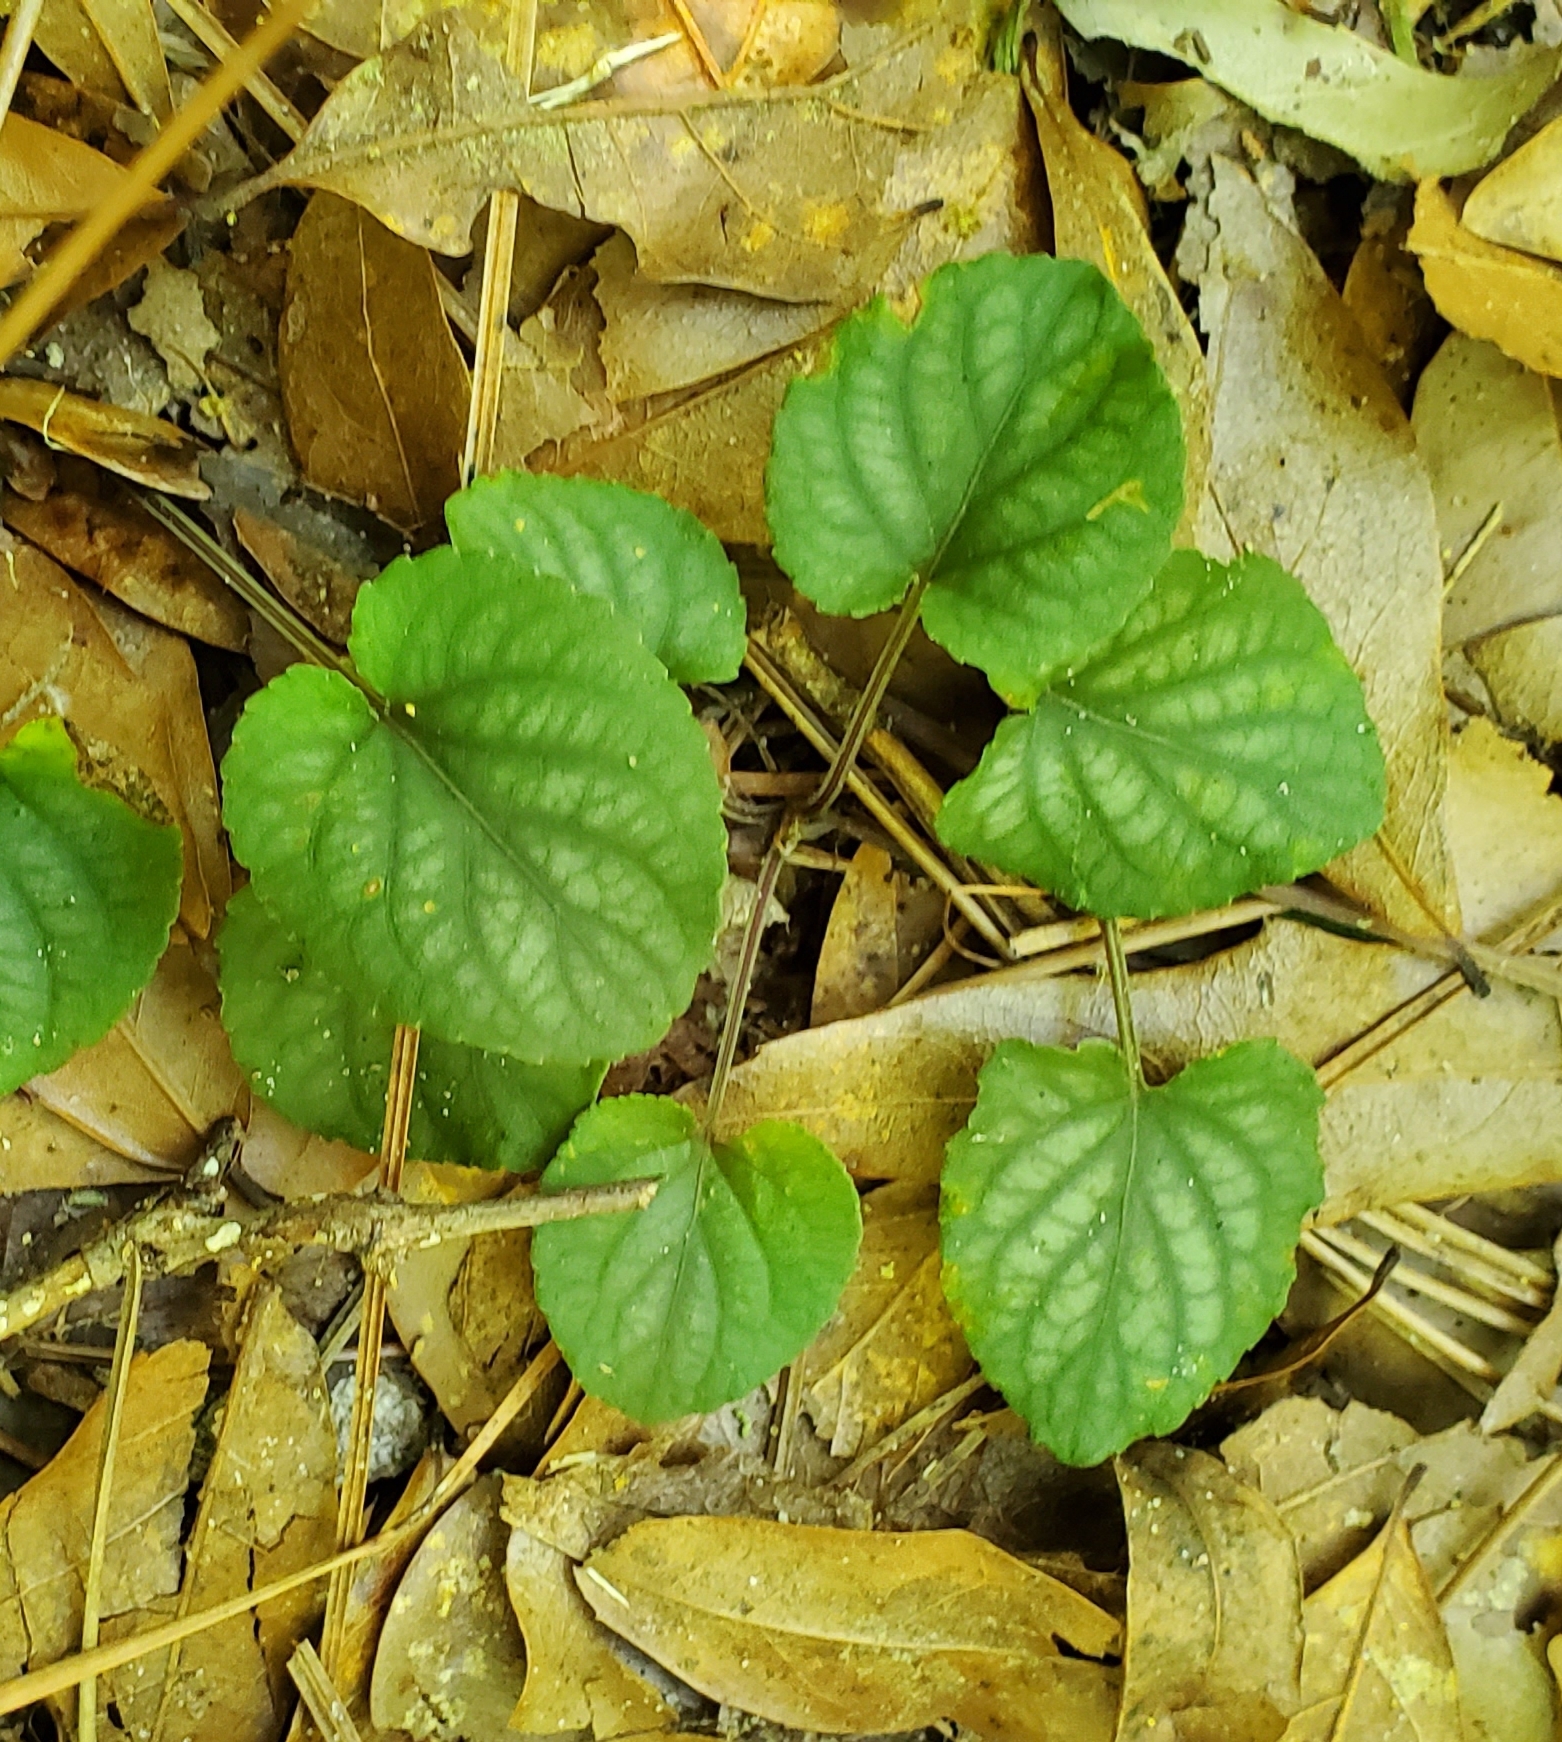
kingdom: Plantae
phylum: Tracheophyta
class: Magnoliopsida
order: Malpighiales
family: Violaceae
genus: Viola
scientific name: Viola walteri
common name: Prostrate southern violet
